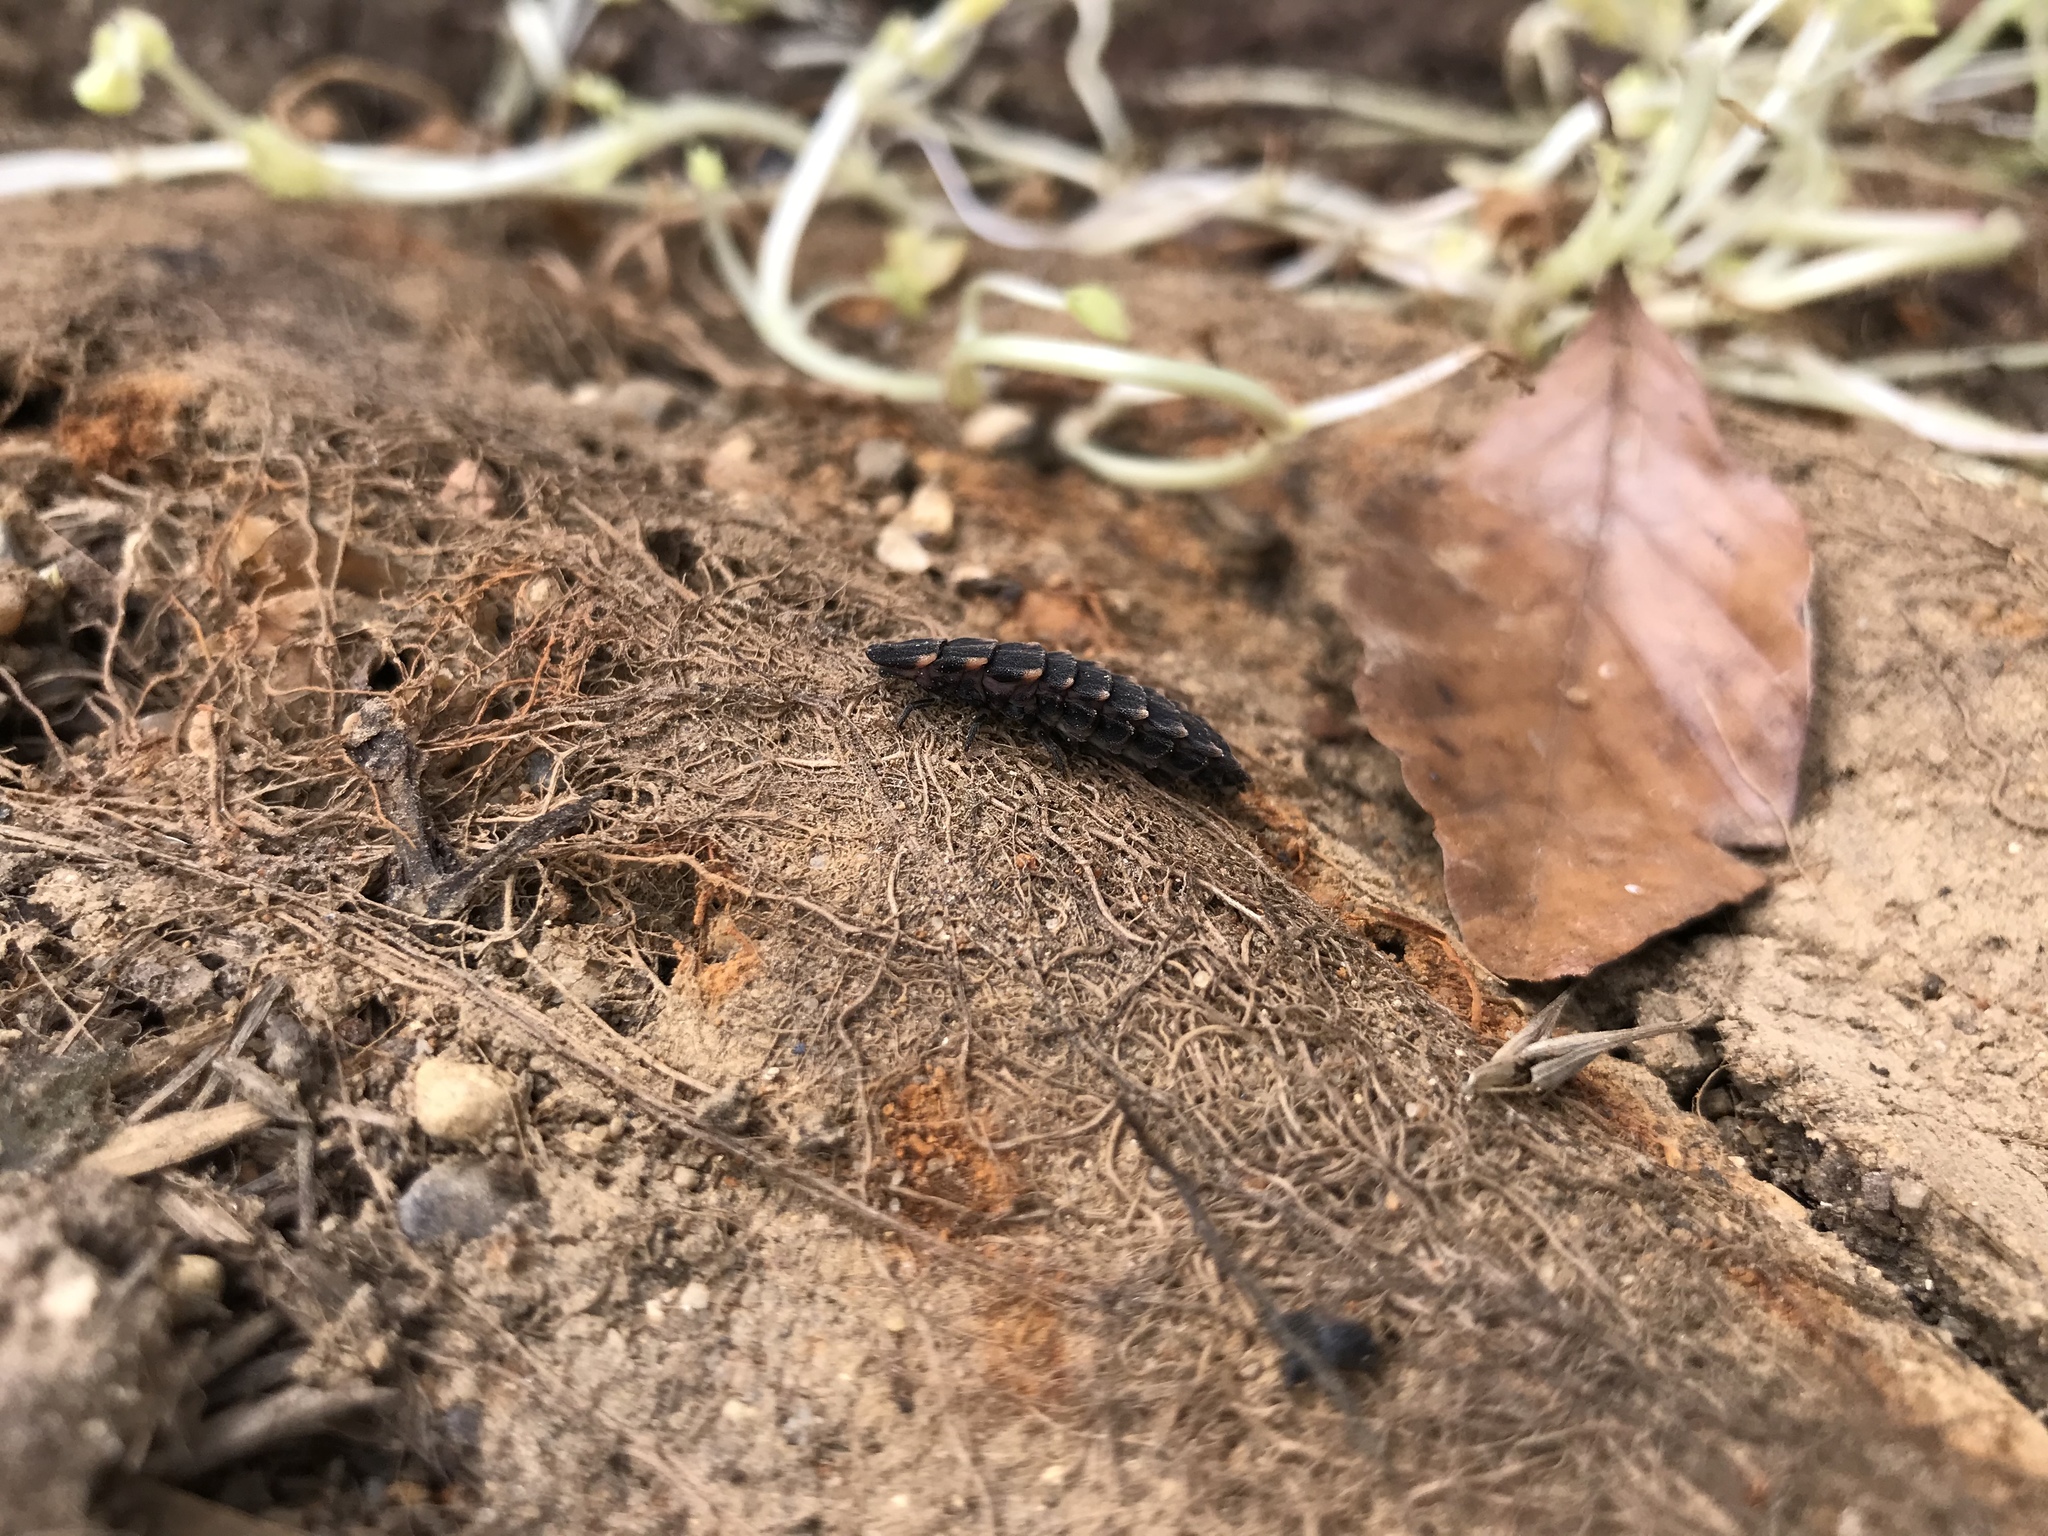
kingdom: Animalia
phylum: Arthropoda
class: Insecta
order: Coleoptera
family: Lampyridae
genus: Lampyris
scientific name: Lampyris noctiluca
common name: Glow-worm
